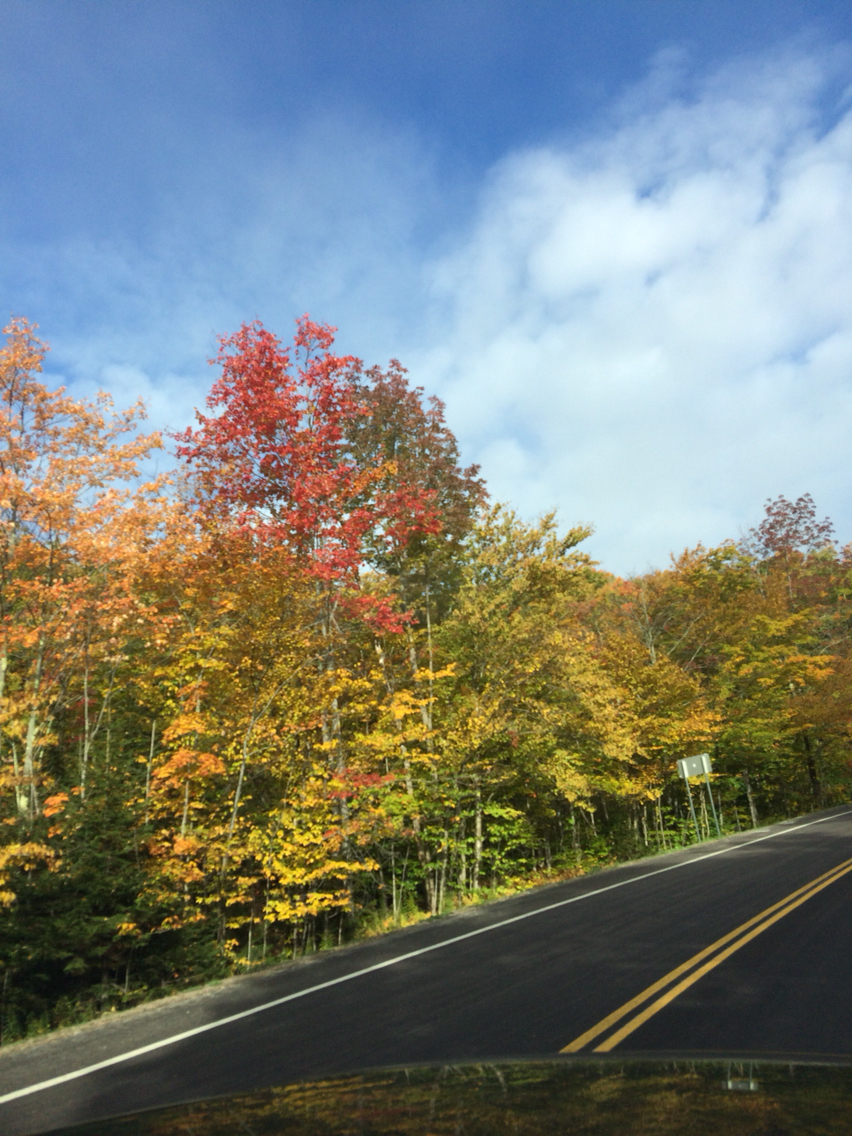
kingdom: Plantae
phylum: Tracheophyta
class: Magnoliopsida
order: Sapindales
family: Sapindaceae
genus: Acer
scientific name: Acer rubrum
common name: Red maple
